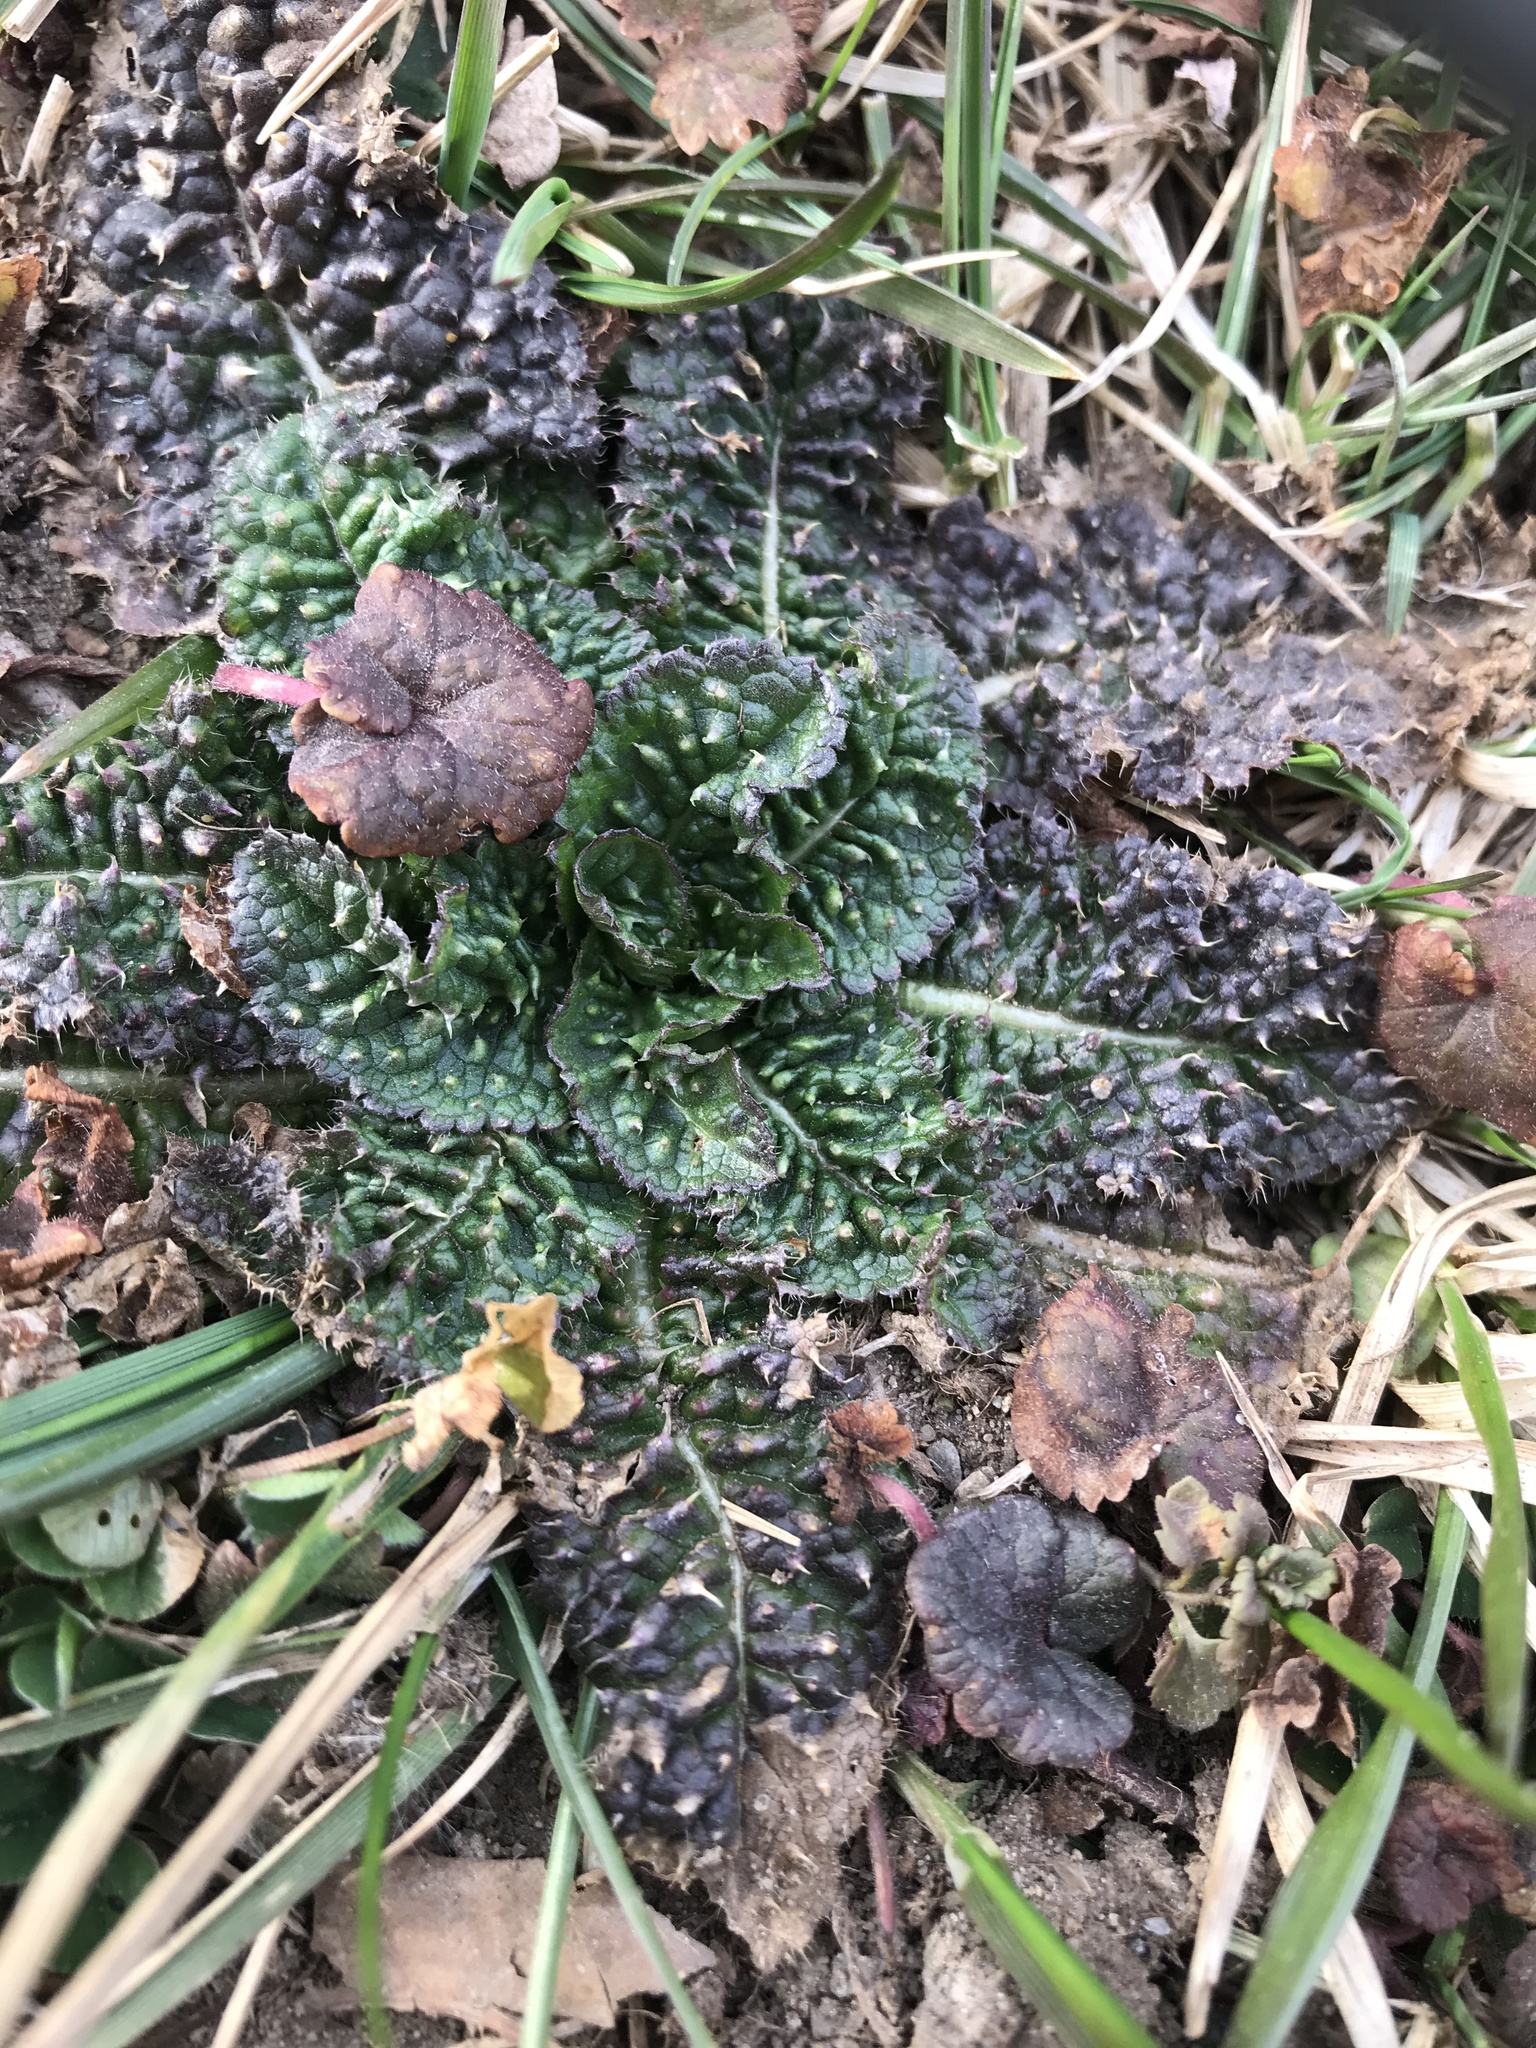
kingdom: Plantae
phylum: Tracheophyta
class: Magnoliopsida
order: Dipsacales
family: Caprifoliaceae
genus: Dipsacus
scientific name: Dipsacus fullonum
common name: Teasel
